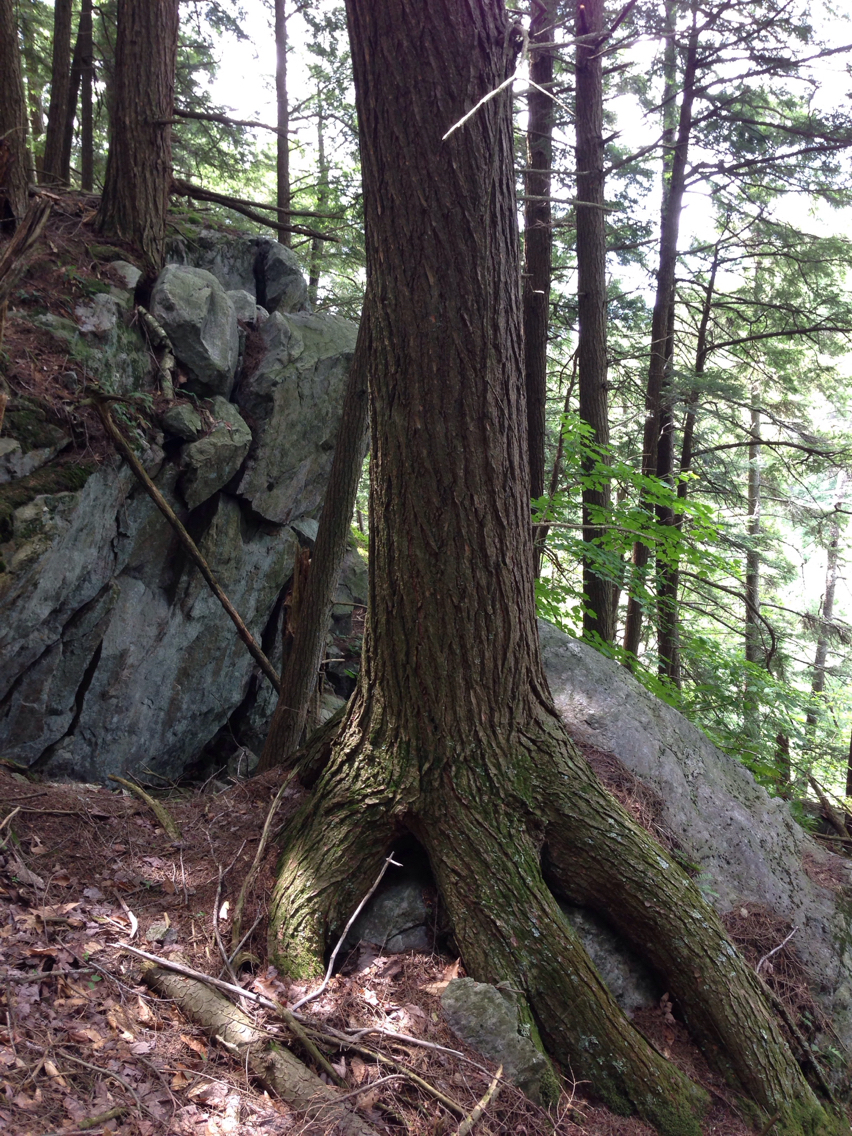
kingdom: Plantae
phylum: Tracheophyta
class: Pinopsida
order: Pinales
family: Pinaceae
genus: Tsuga
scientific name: Tsuga canadensis
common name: Eastern hemlock
